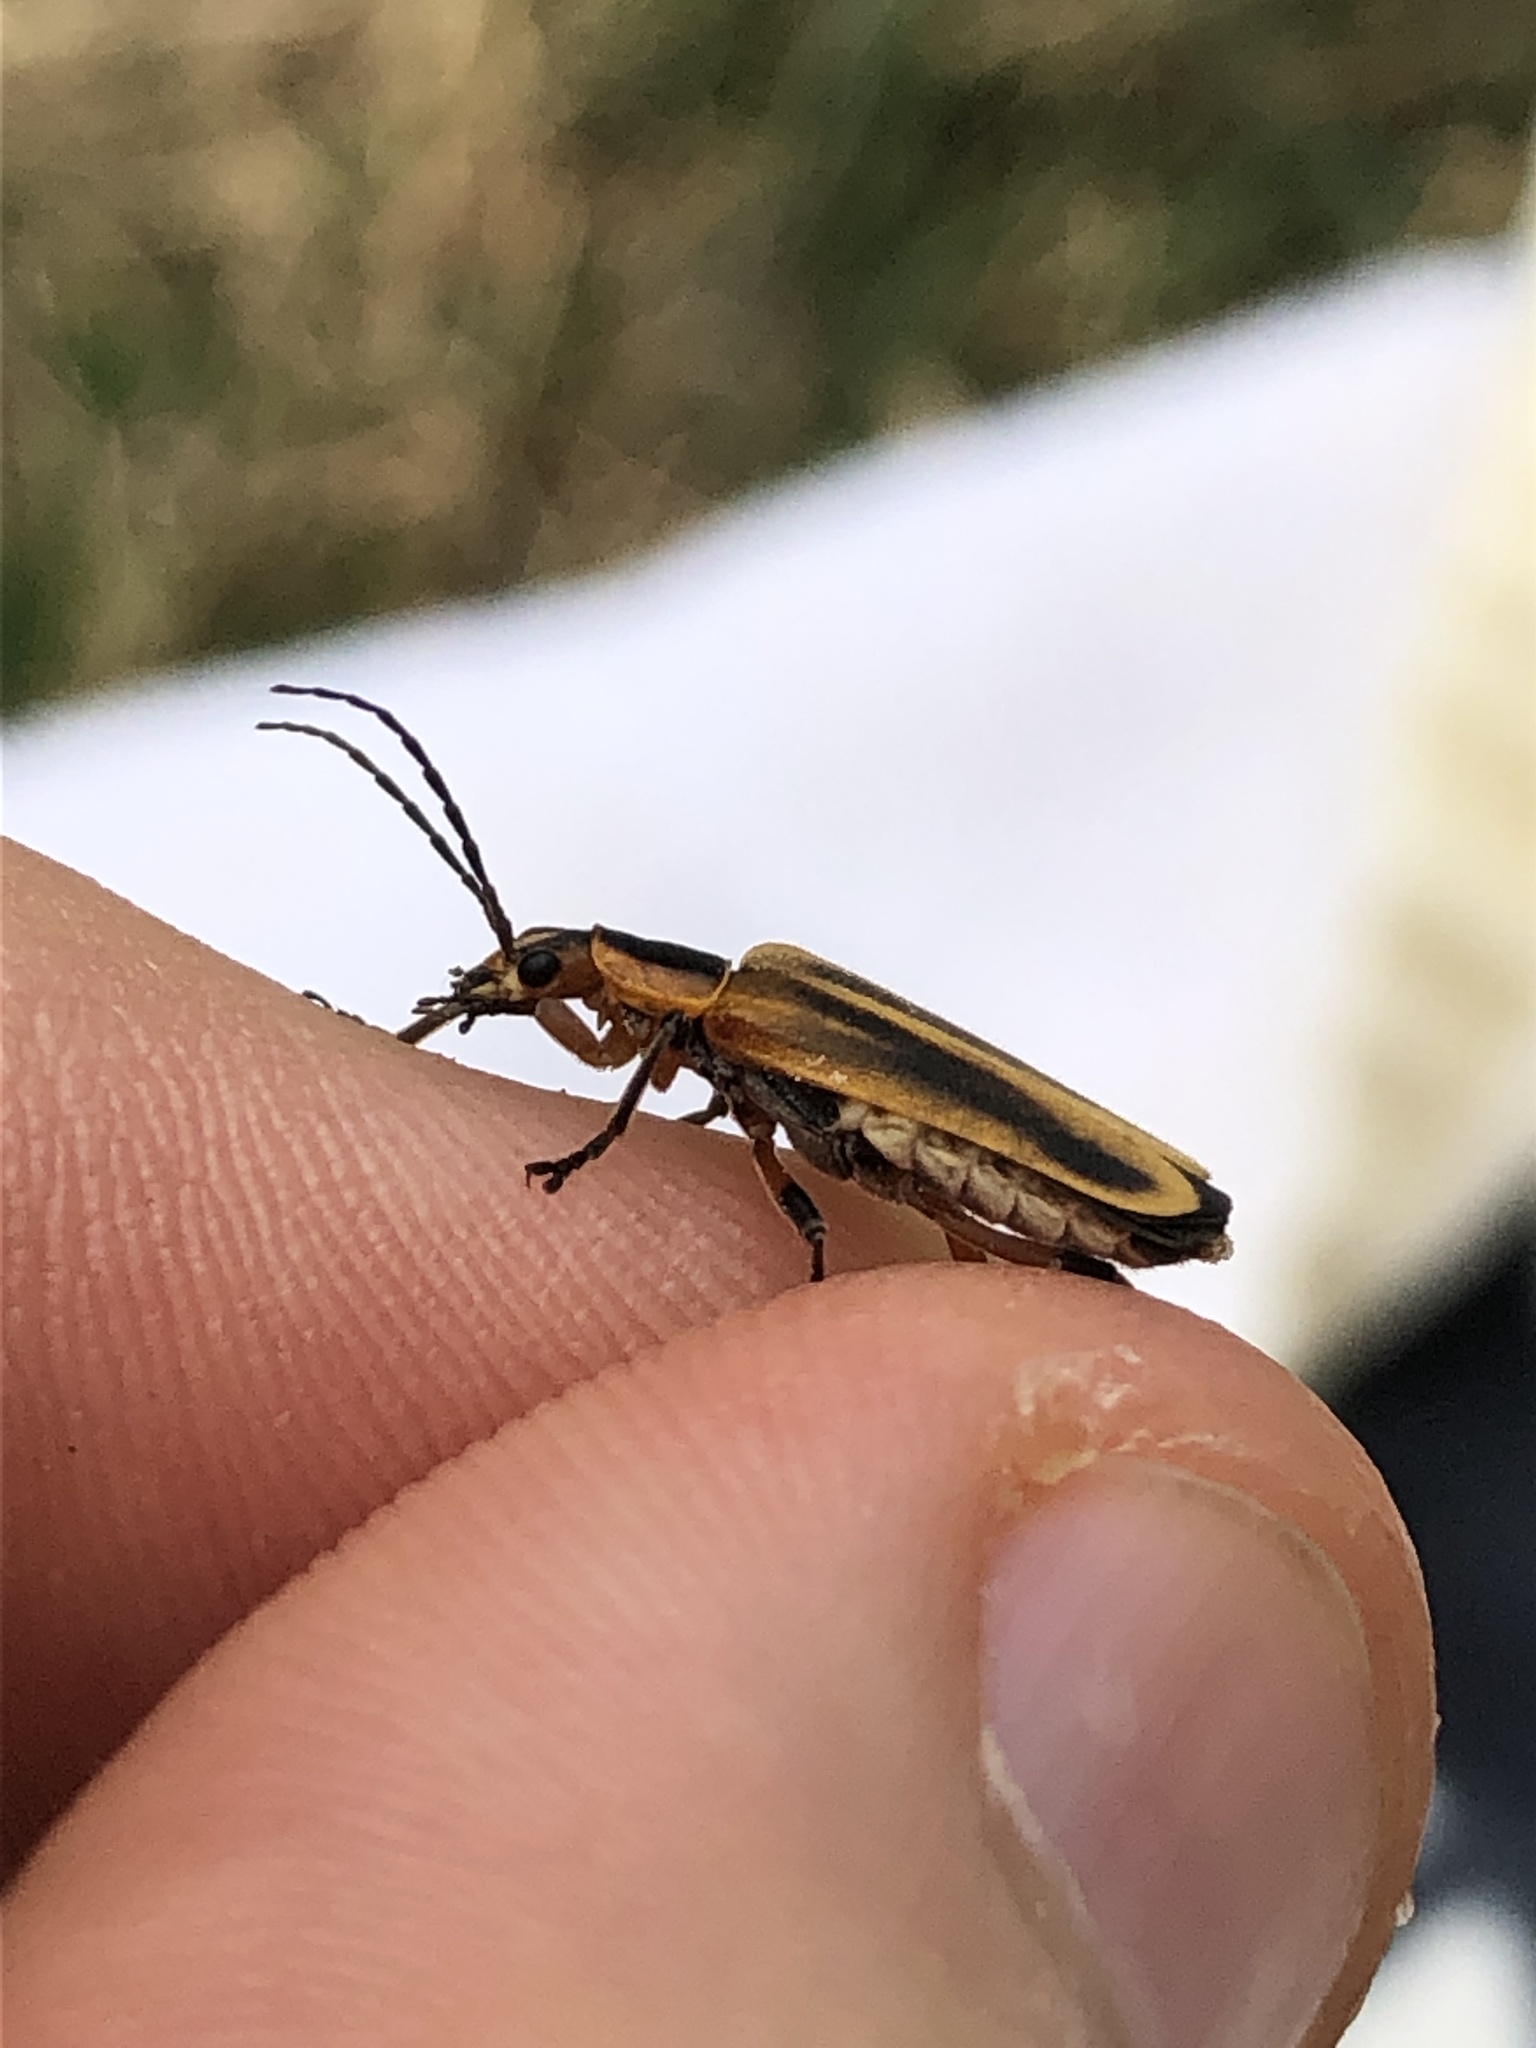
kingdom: Animalia
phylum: Arthropoda
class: Insecta
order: Coleoptera
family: Cantharidae
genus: Chauliognathus
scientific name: Chauliognathus marginatus
